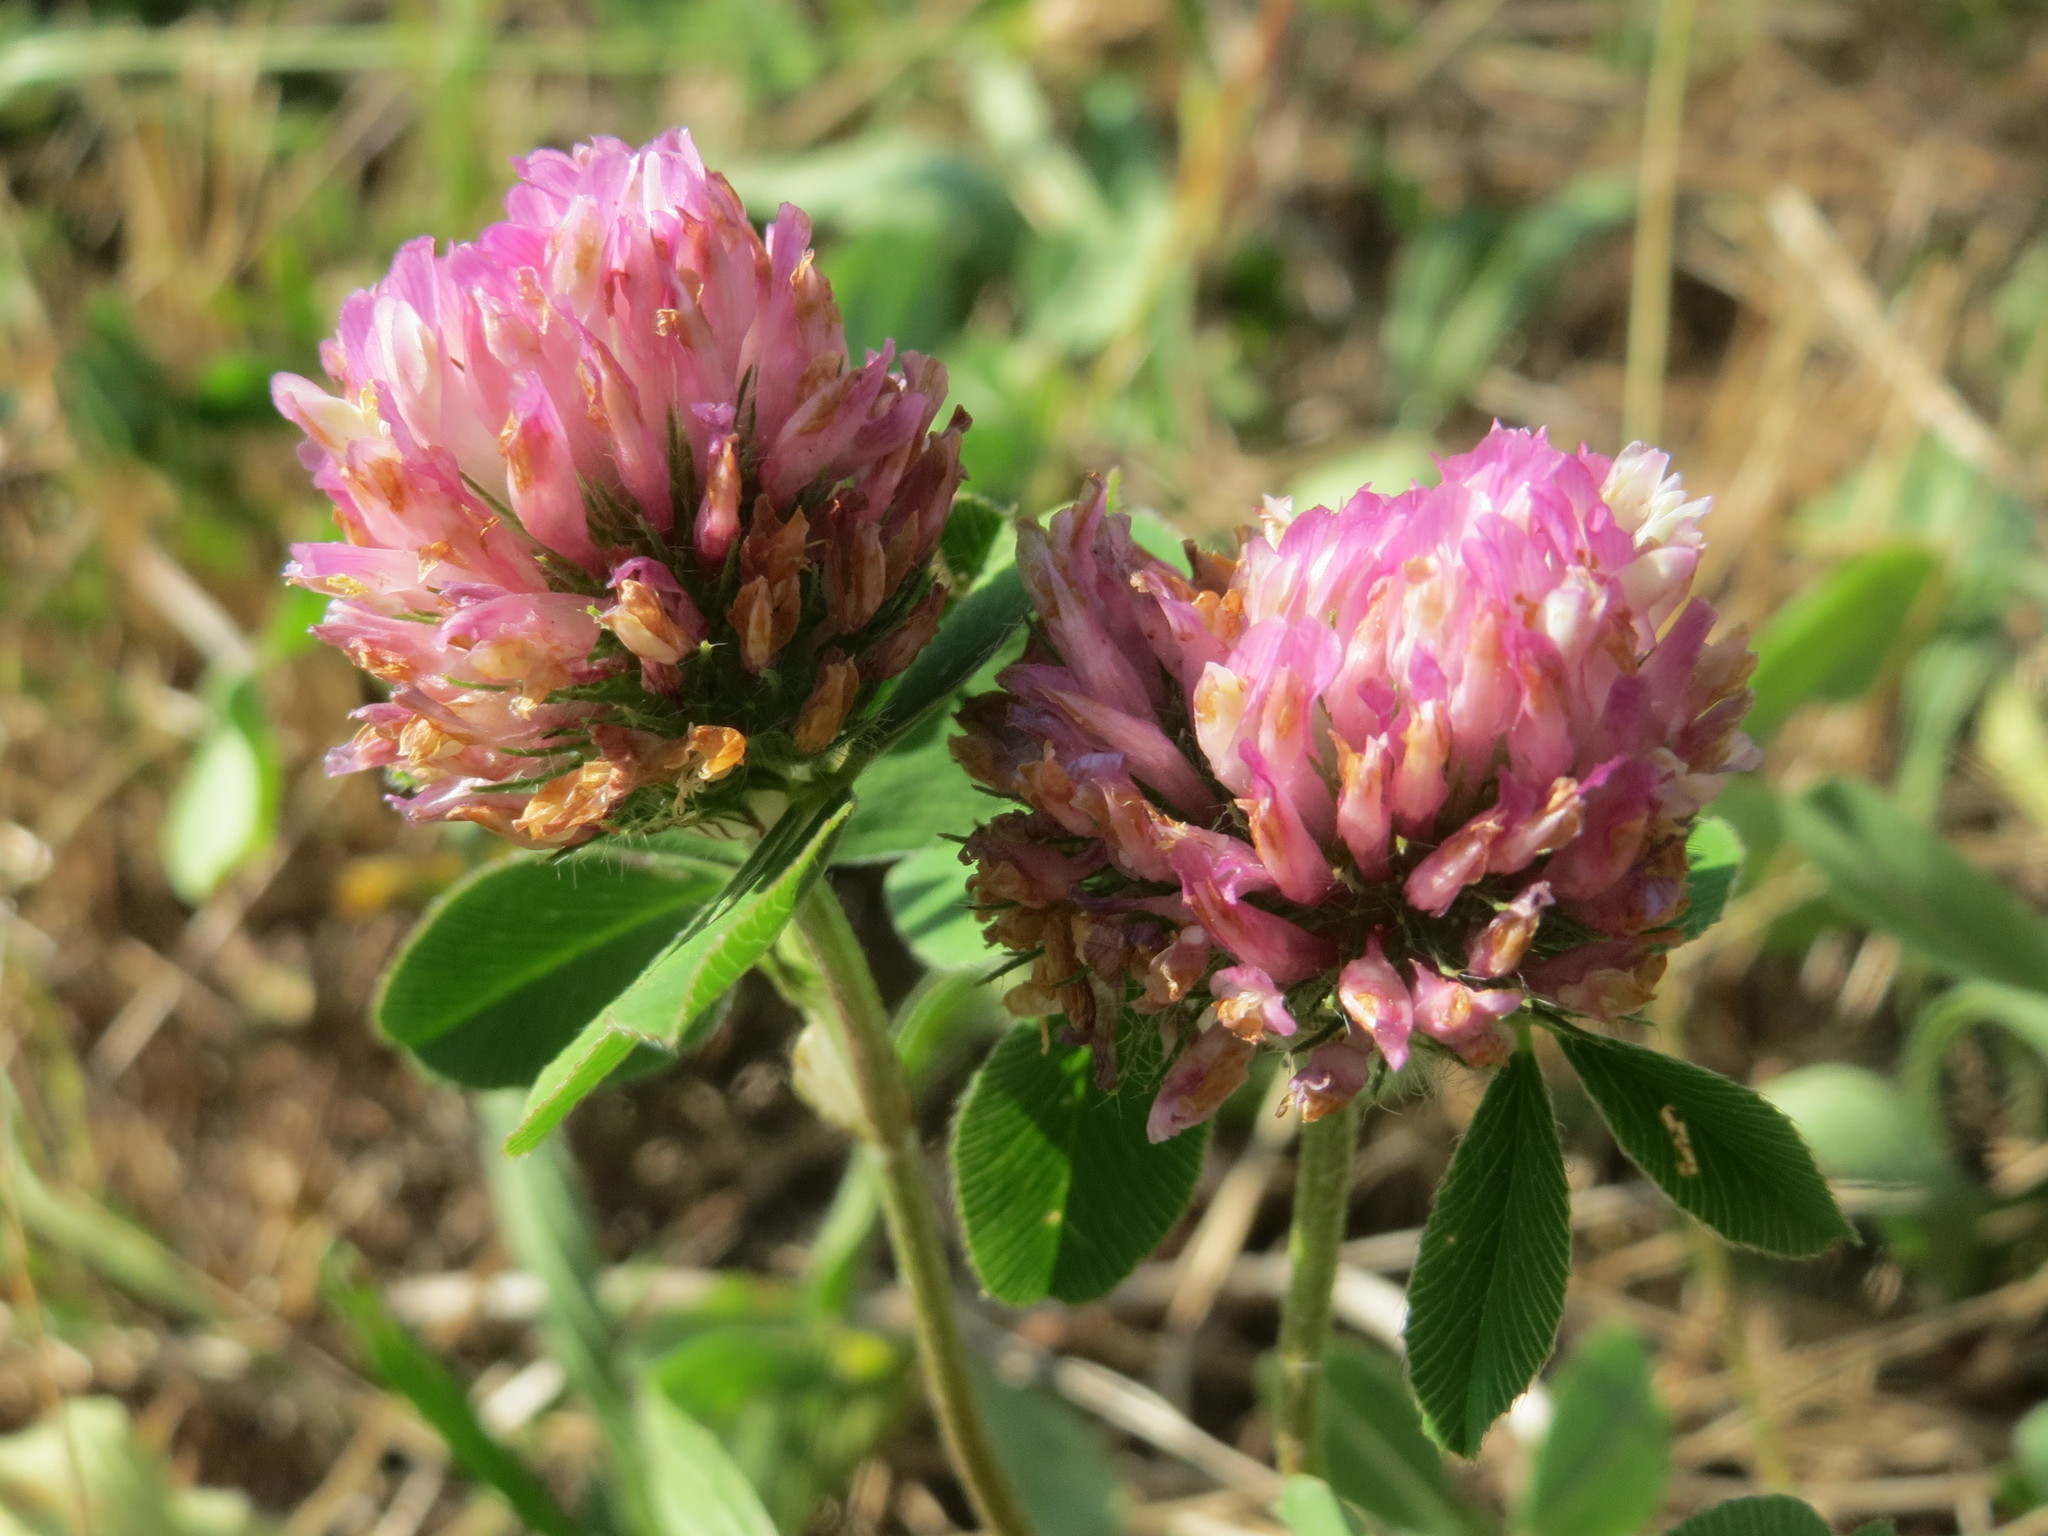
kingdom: Plantae
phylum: Tracheophyta
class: Magnoliopsida
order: Fabales
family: Fabaceae
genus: Trifolium
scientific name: Trifolium pratense
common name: Red clover
